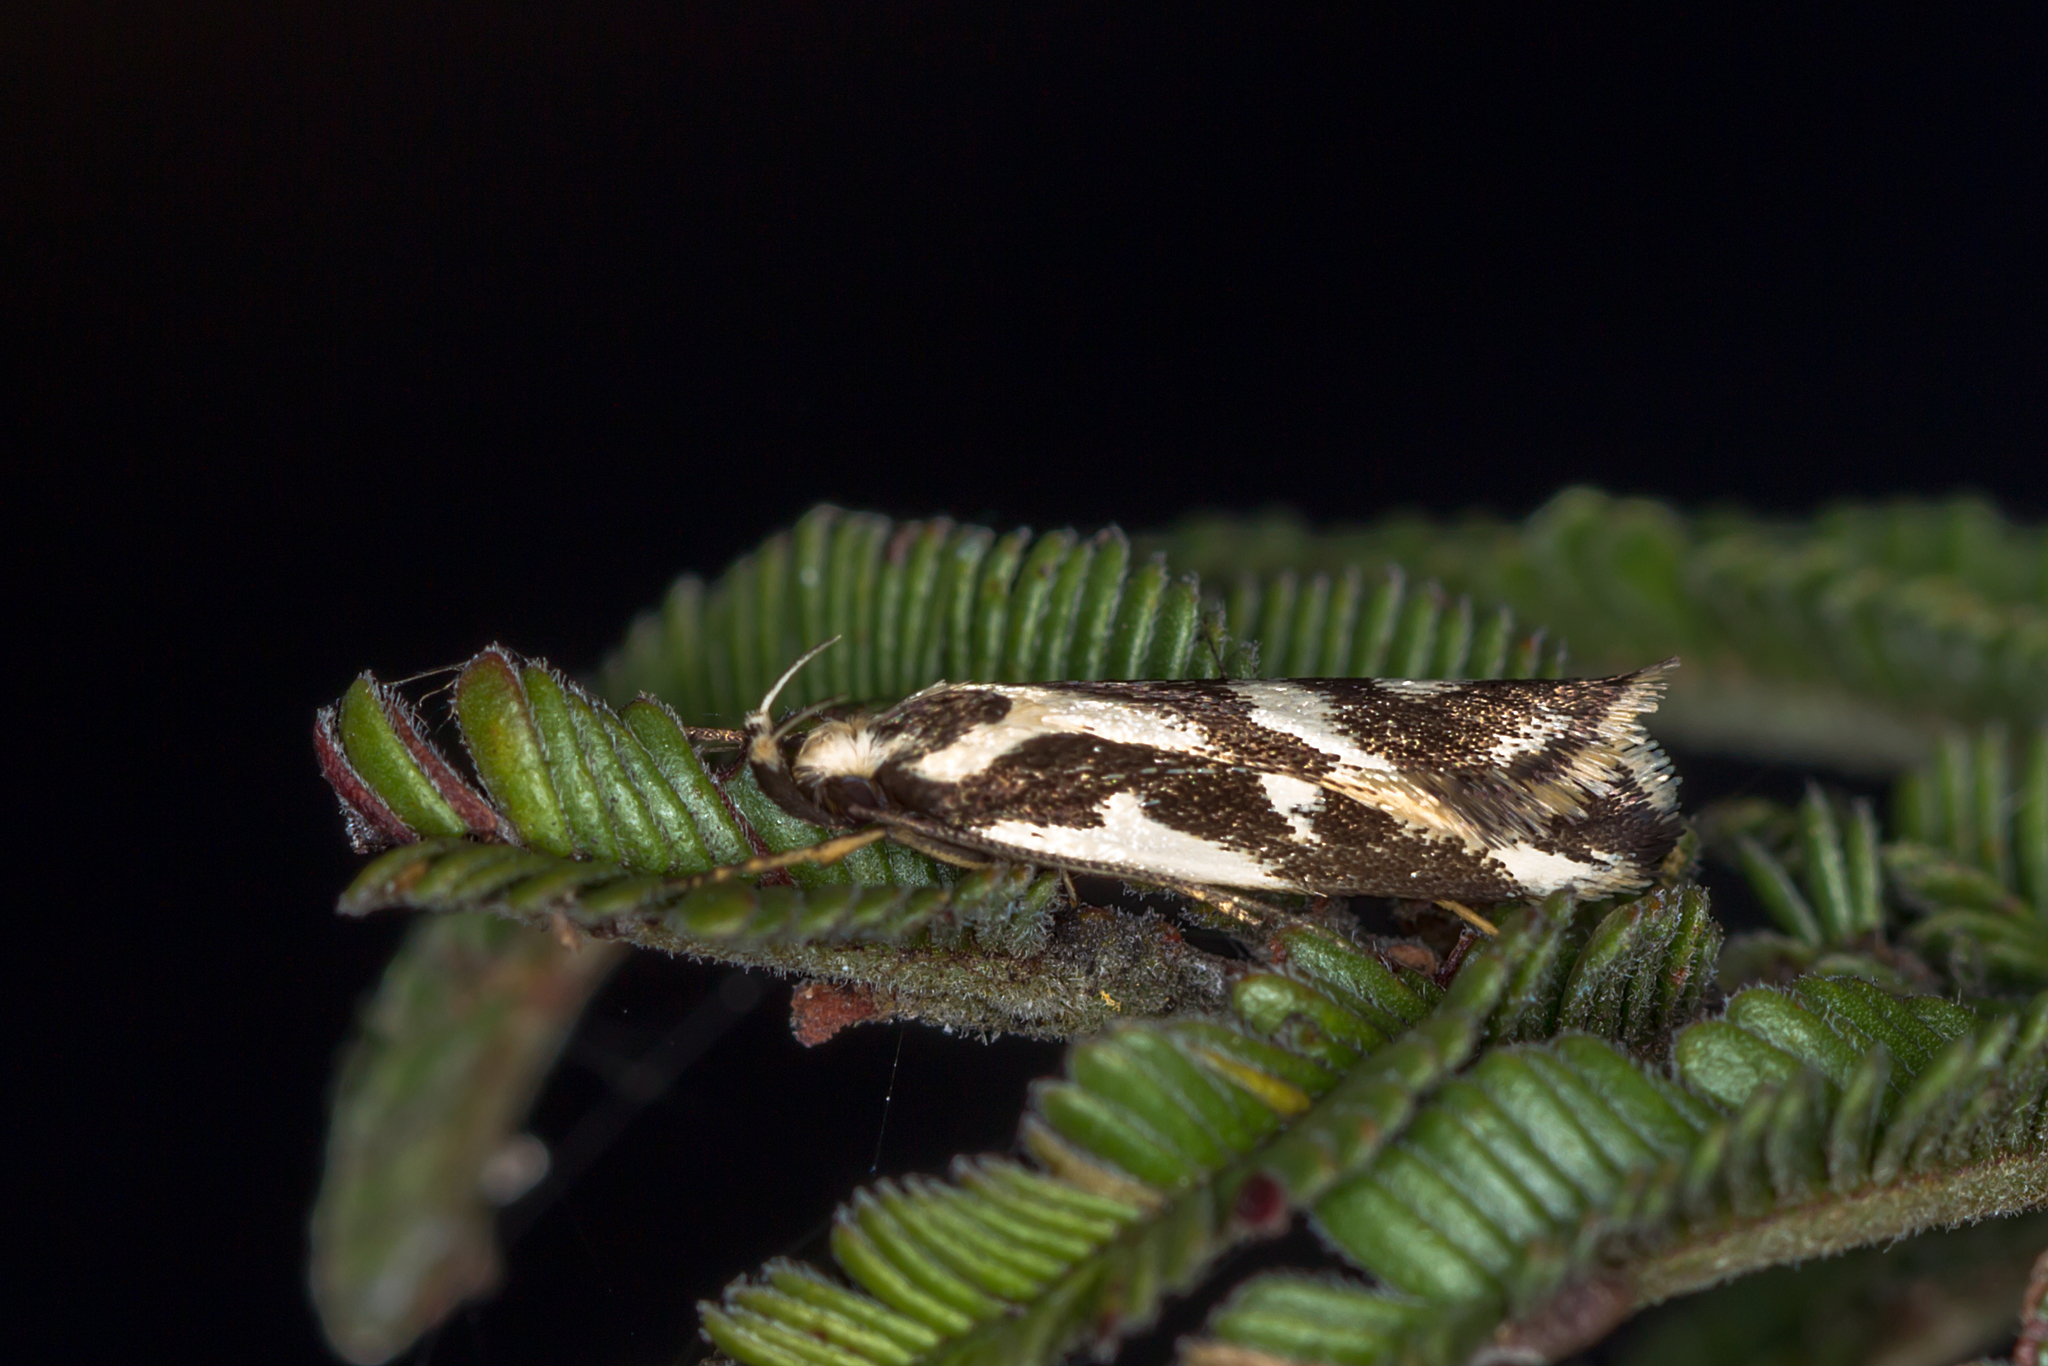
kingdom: Animalia
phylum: Arthropoda
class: Insecta
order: Lepidoptera
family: Oecophoridae
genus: Epithymema
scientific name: Epithymema incomposita
